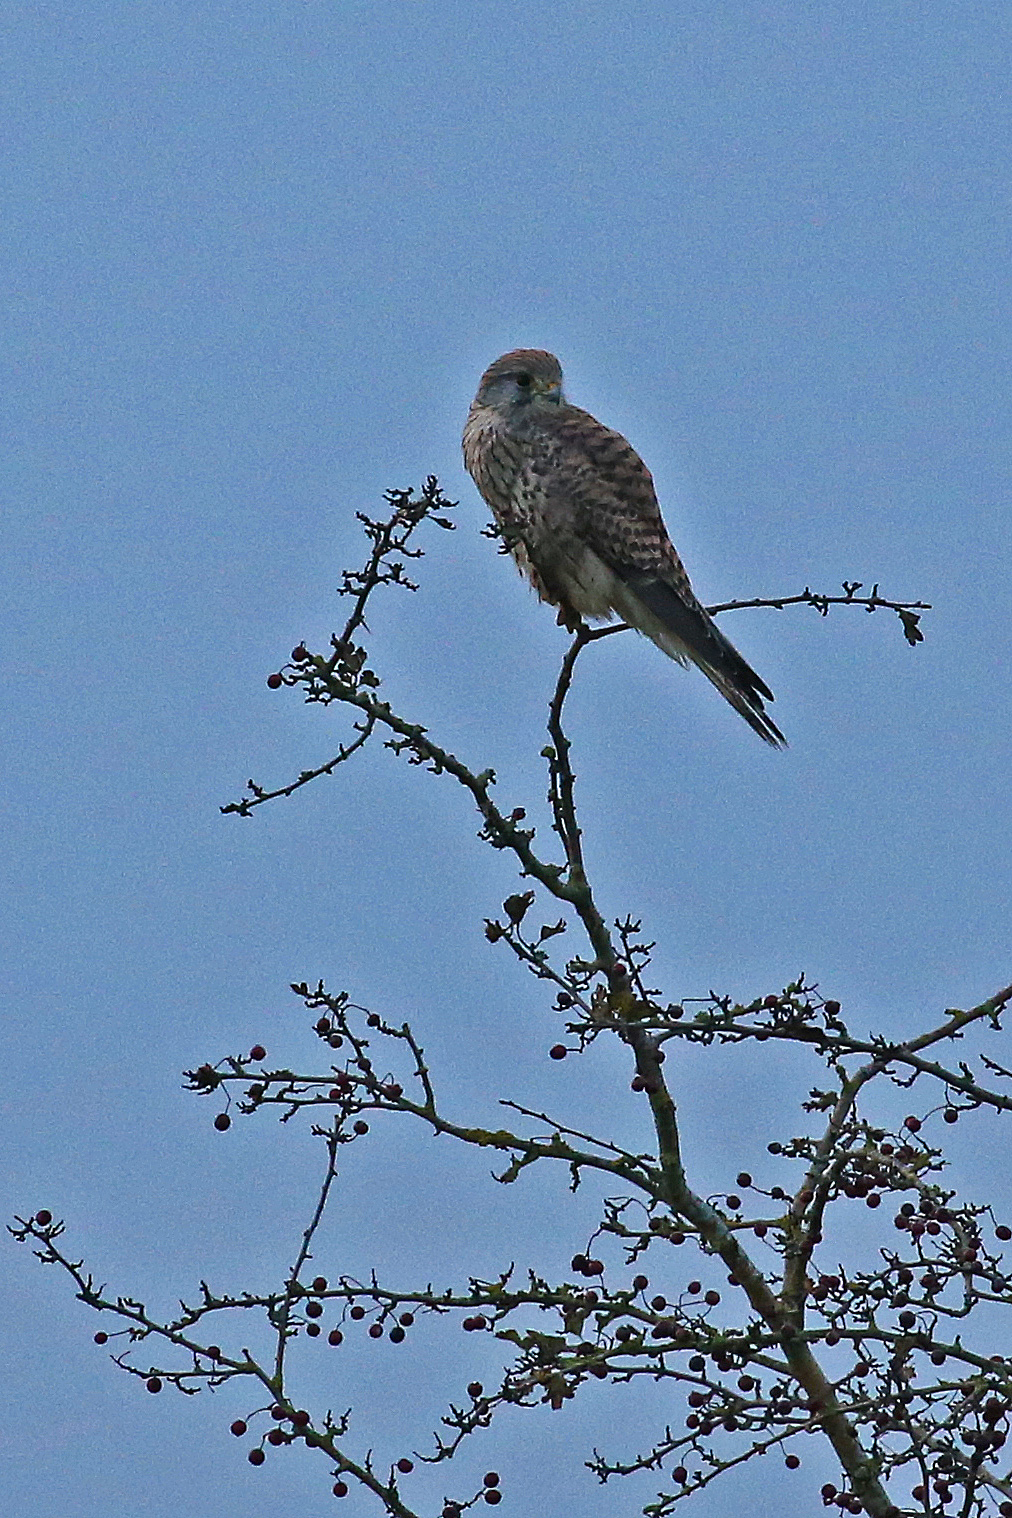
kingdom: Animalia
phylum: Chordata
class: Aves
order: Falconiformes
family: Falconidae
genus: Falco
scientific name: Falco tinnunculus
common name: Common kestrel
